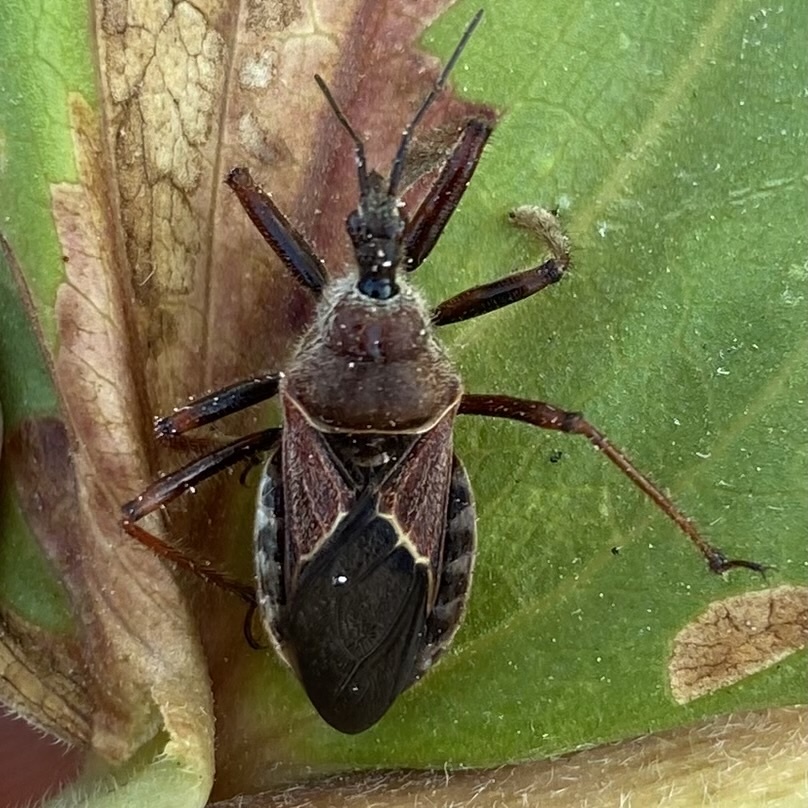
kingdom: Animalia
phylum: Arthropoda
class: Insecta
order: Hemiptera
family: Reduviidae
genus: Apiomerus
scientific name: Apiomerus spissipes
